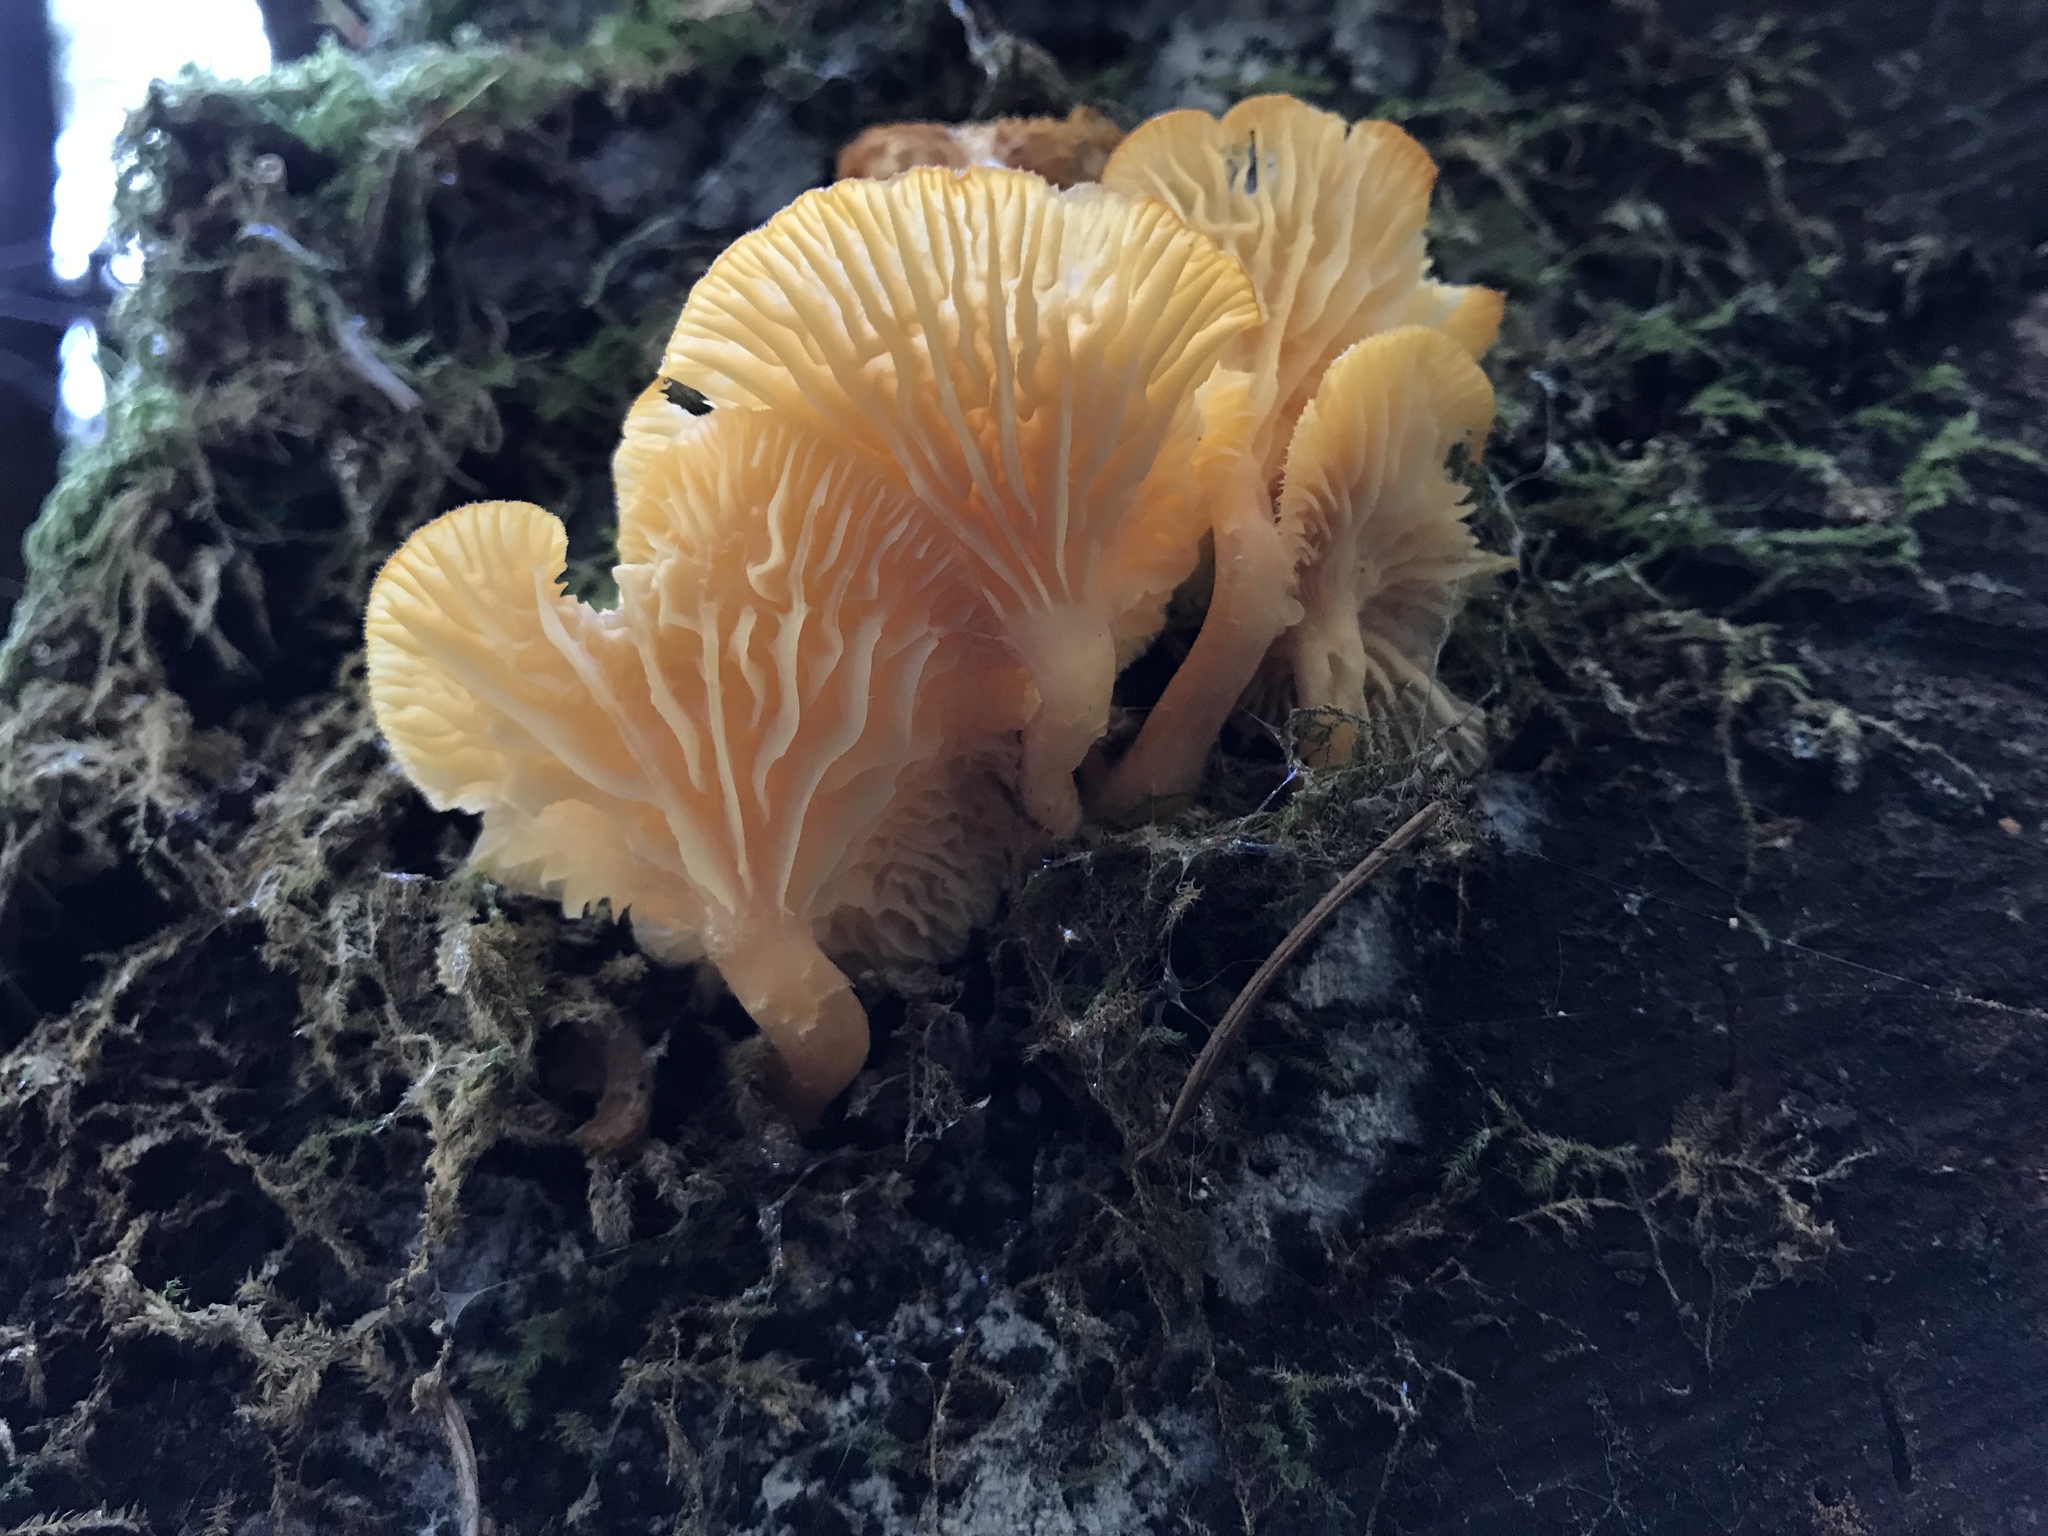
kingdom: Fungi
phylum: Basidiomycota
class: Agaricomycetes
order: Agaricales
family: Hygrophoraceae
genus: Chrysomphalina
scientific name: Chrysomphalina aurantiaca
